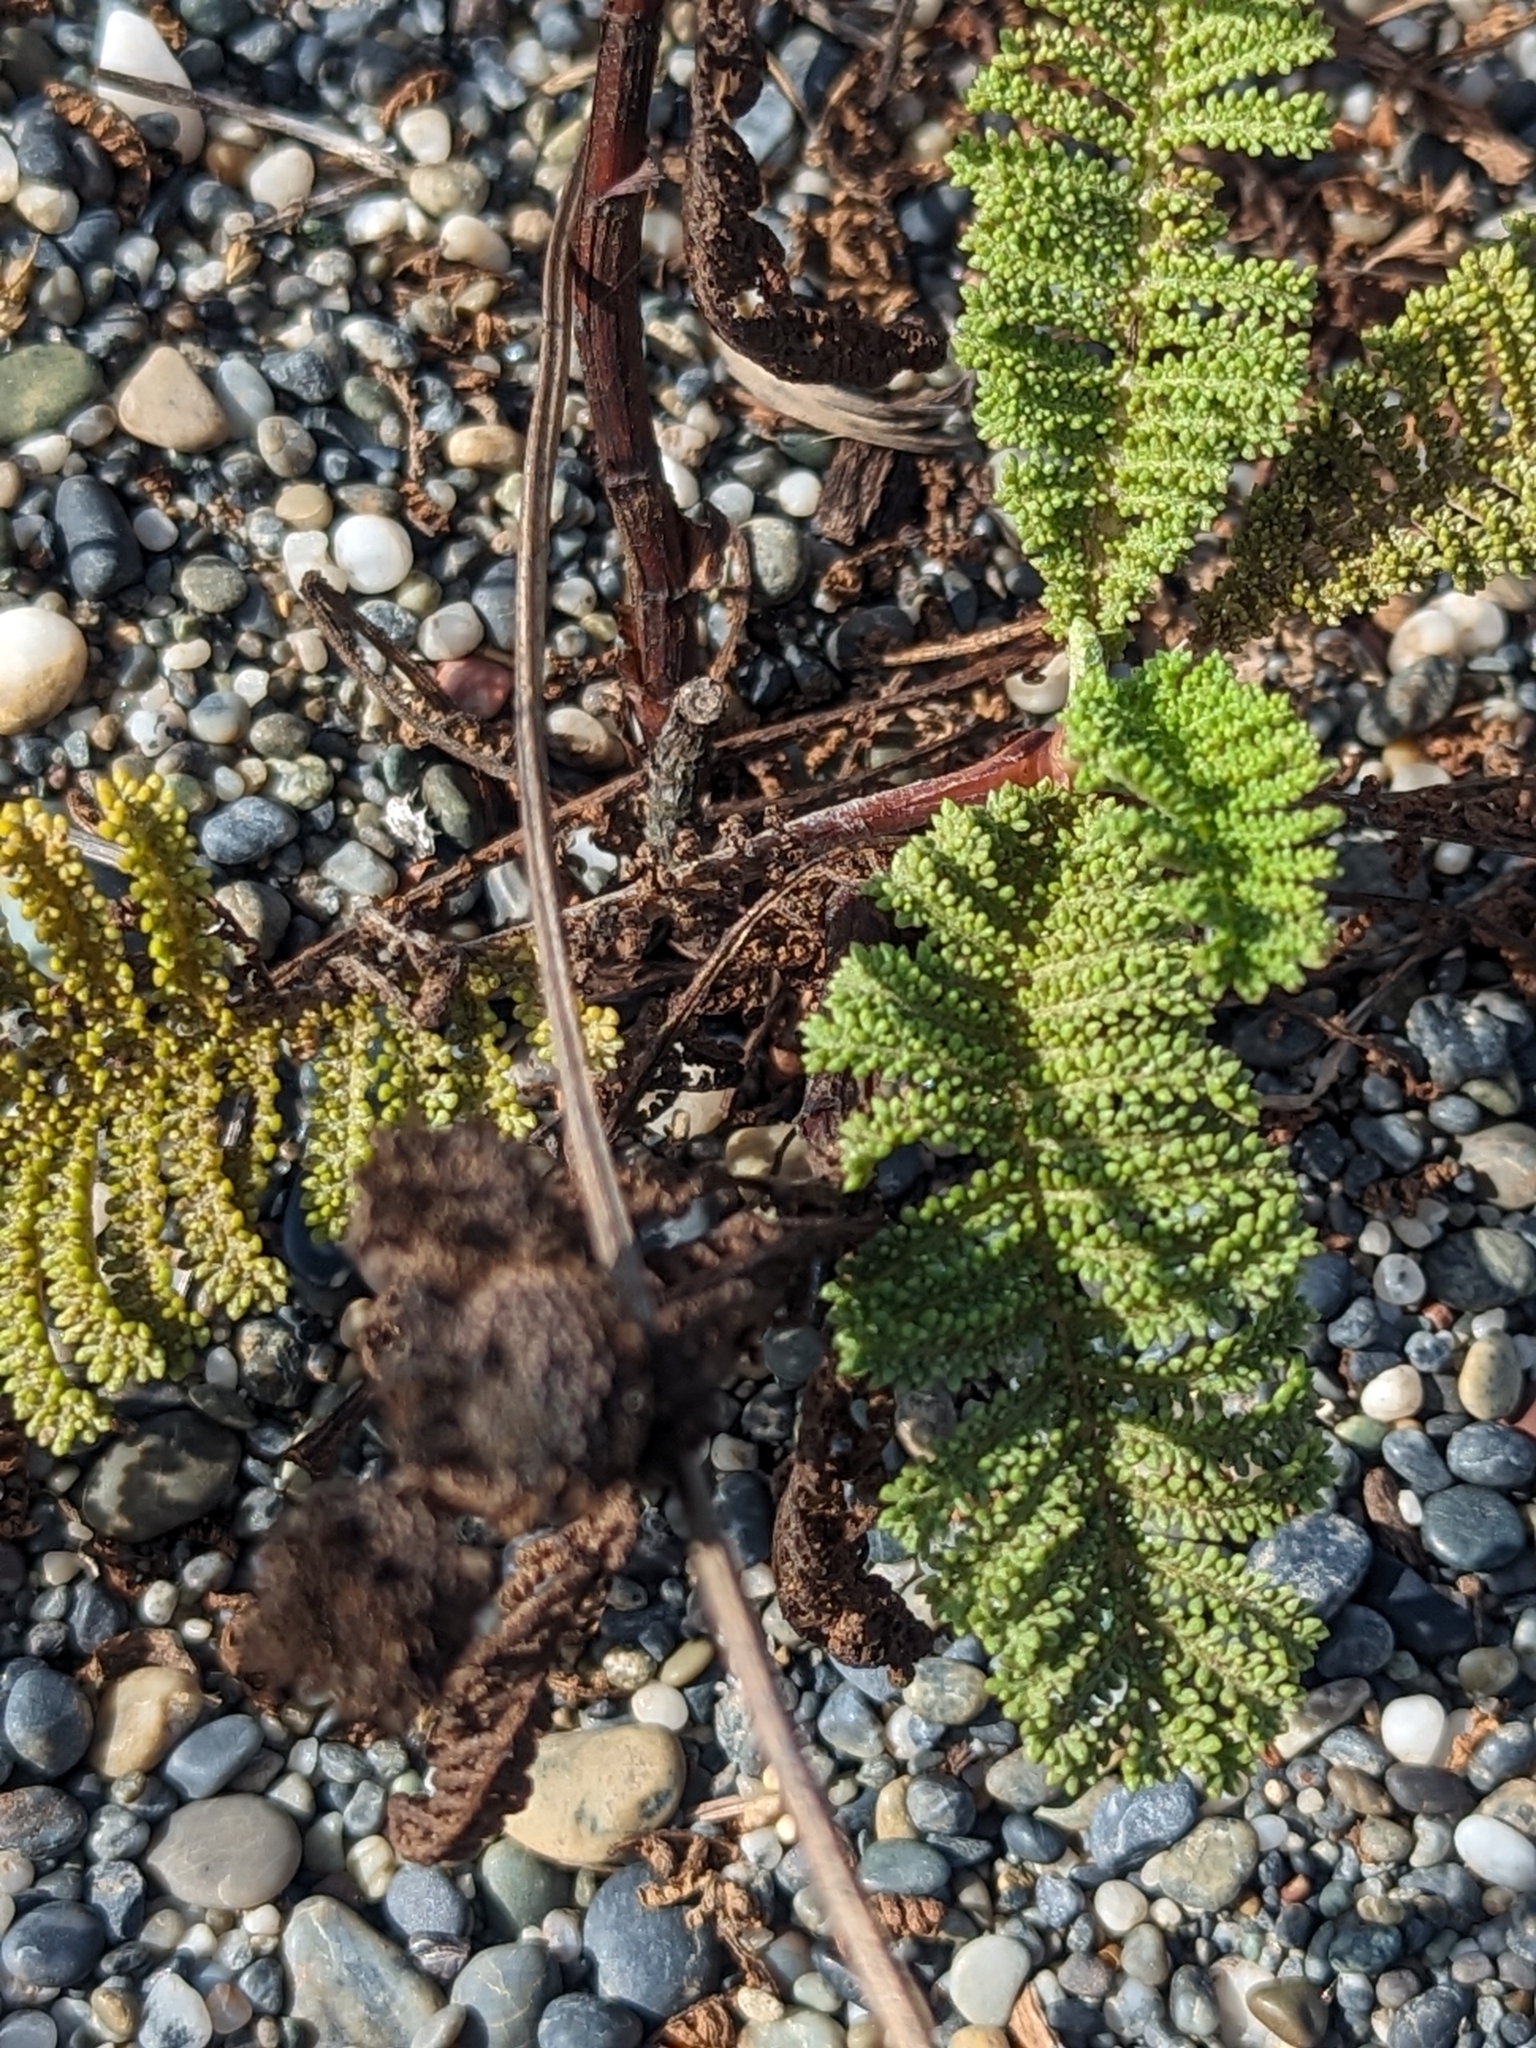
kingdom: Plantae
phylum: Tracheophyta
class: Magnoliopsida
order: Asterales
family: Asteraceae
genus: Tanacetum
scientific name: Tanacetum bipinnatum
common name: Dwarf tansy
